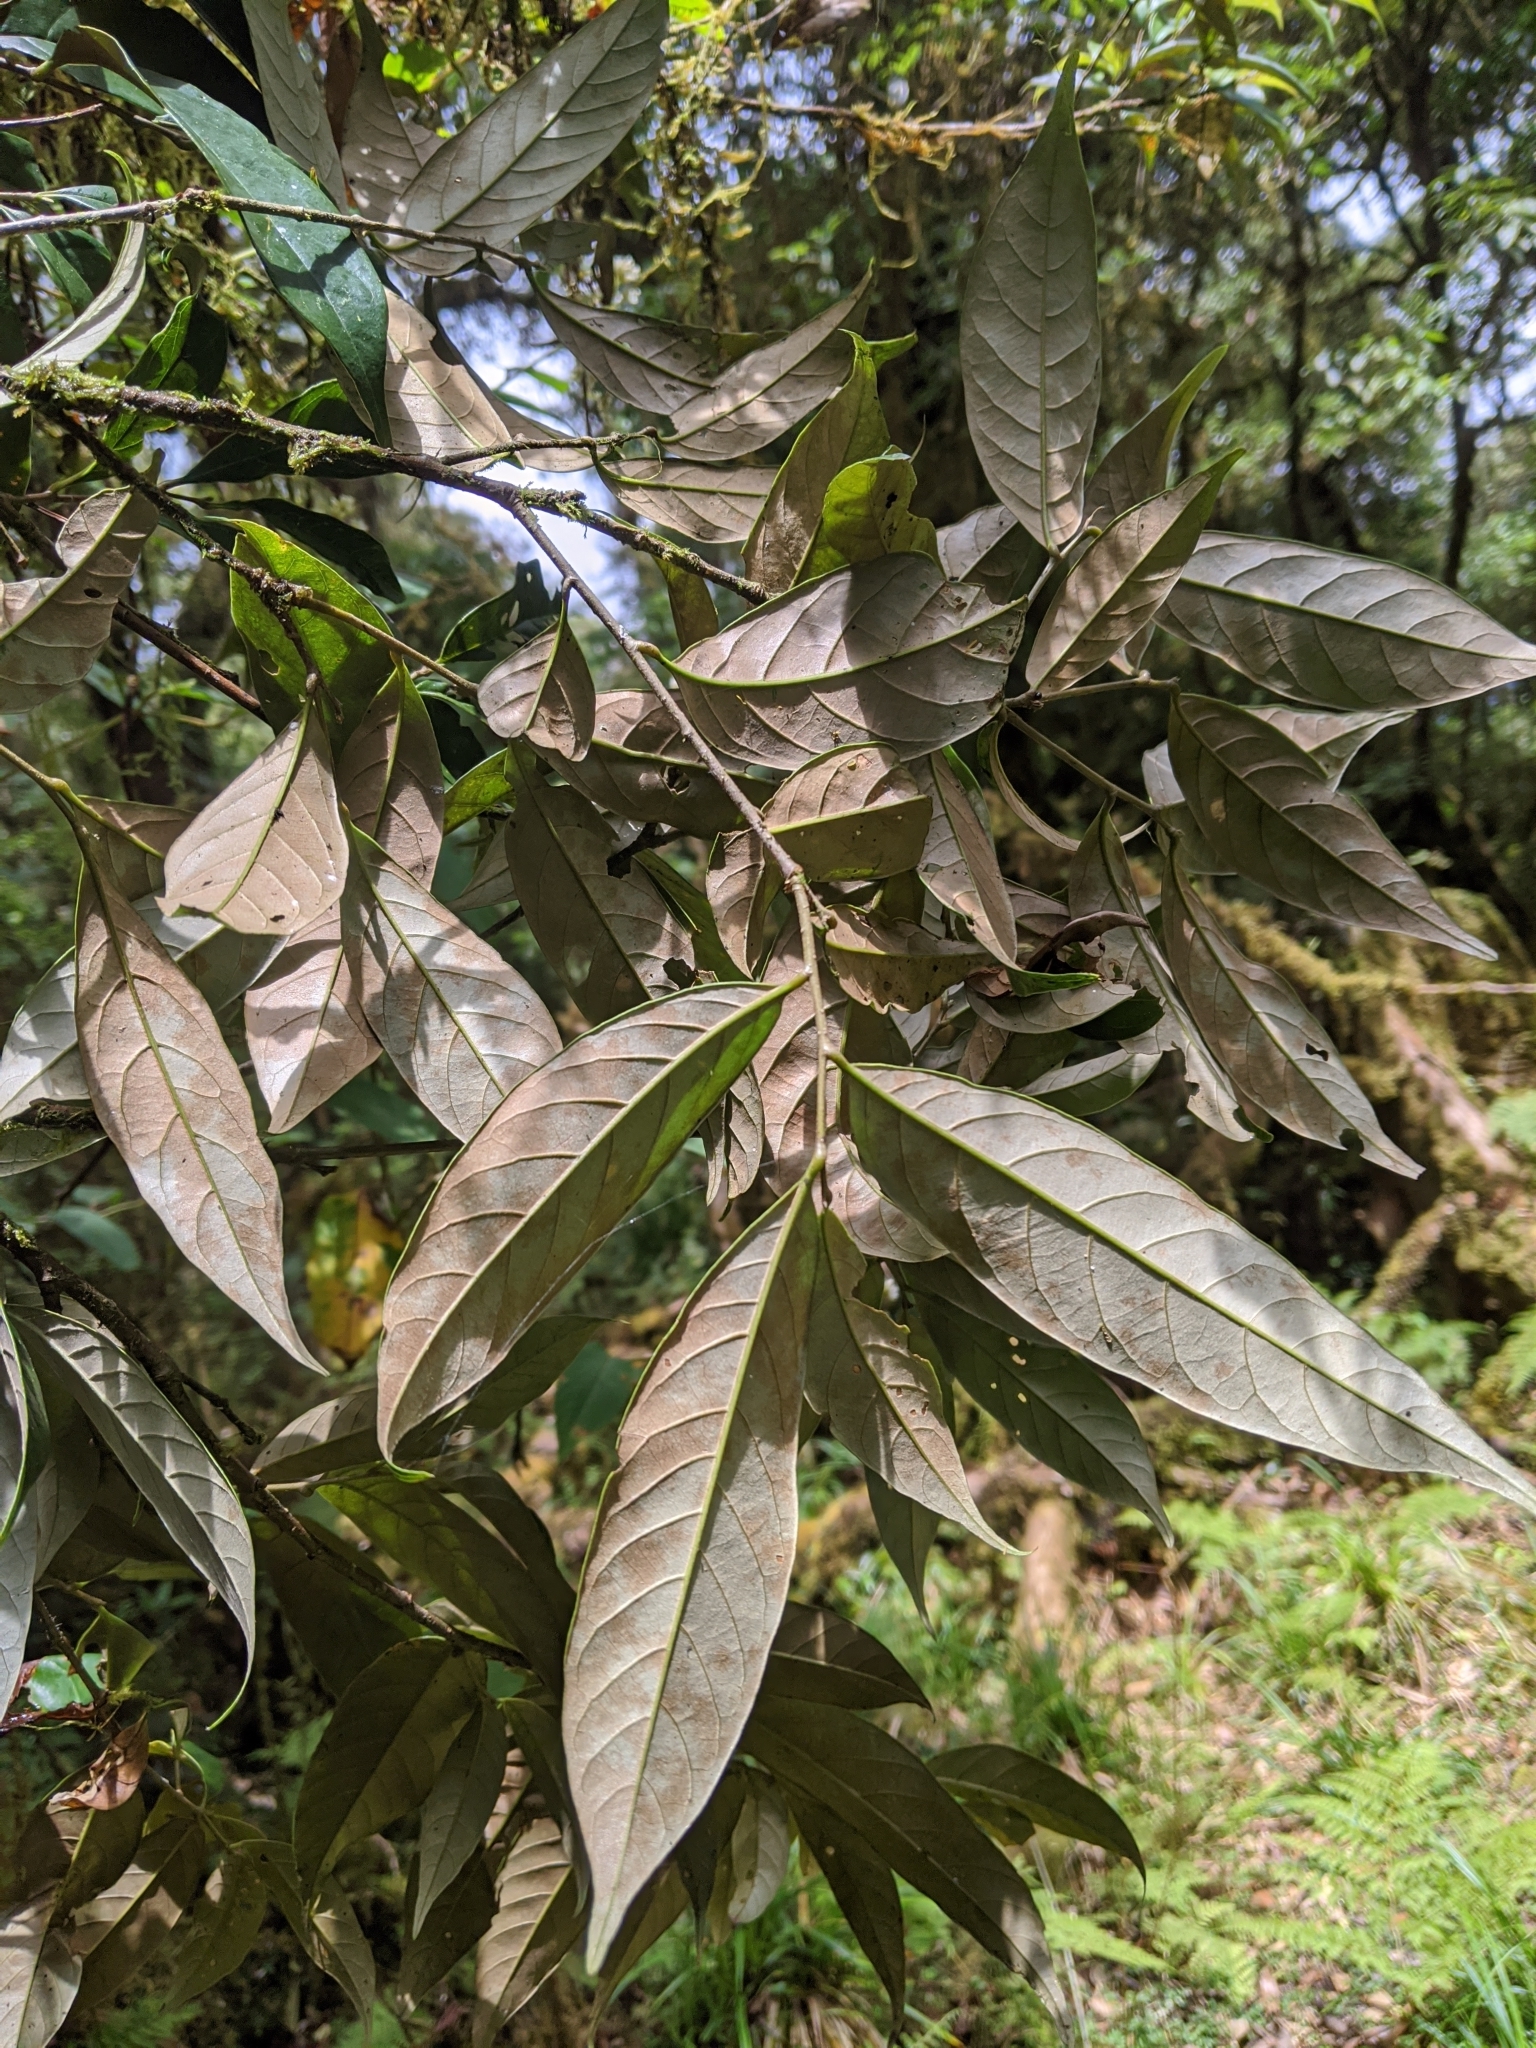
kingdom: Plantae
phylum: Tracheophyta
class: Magnoliopsida
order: Fagales
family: Fagaceae
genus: Castanopsis
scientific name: Castanopsis faberi
